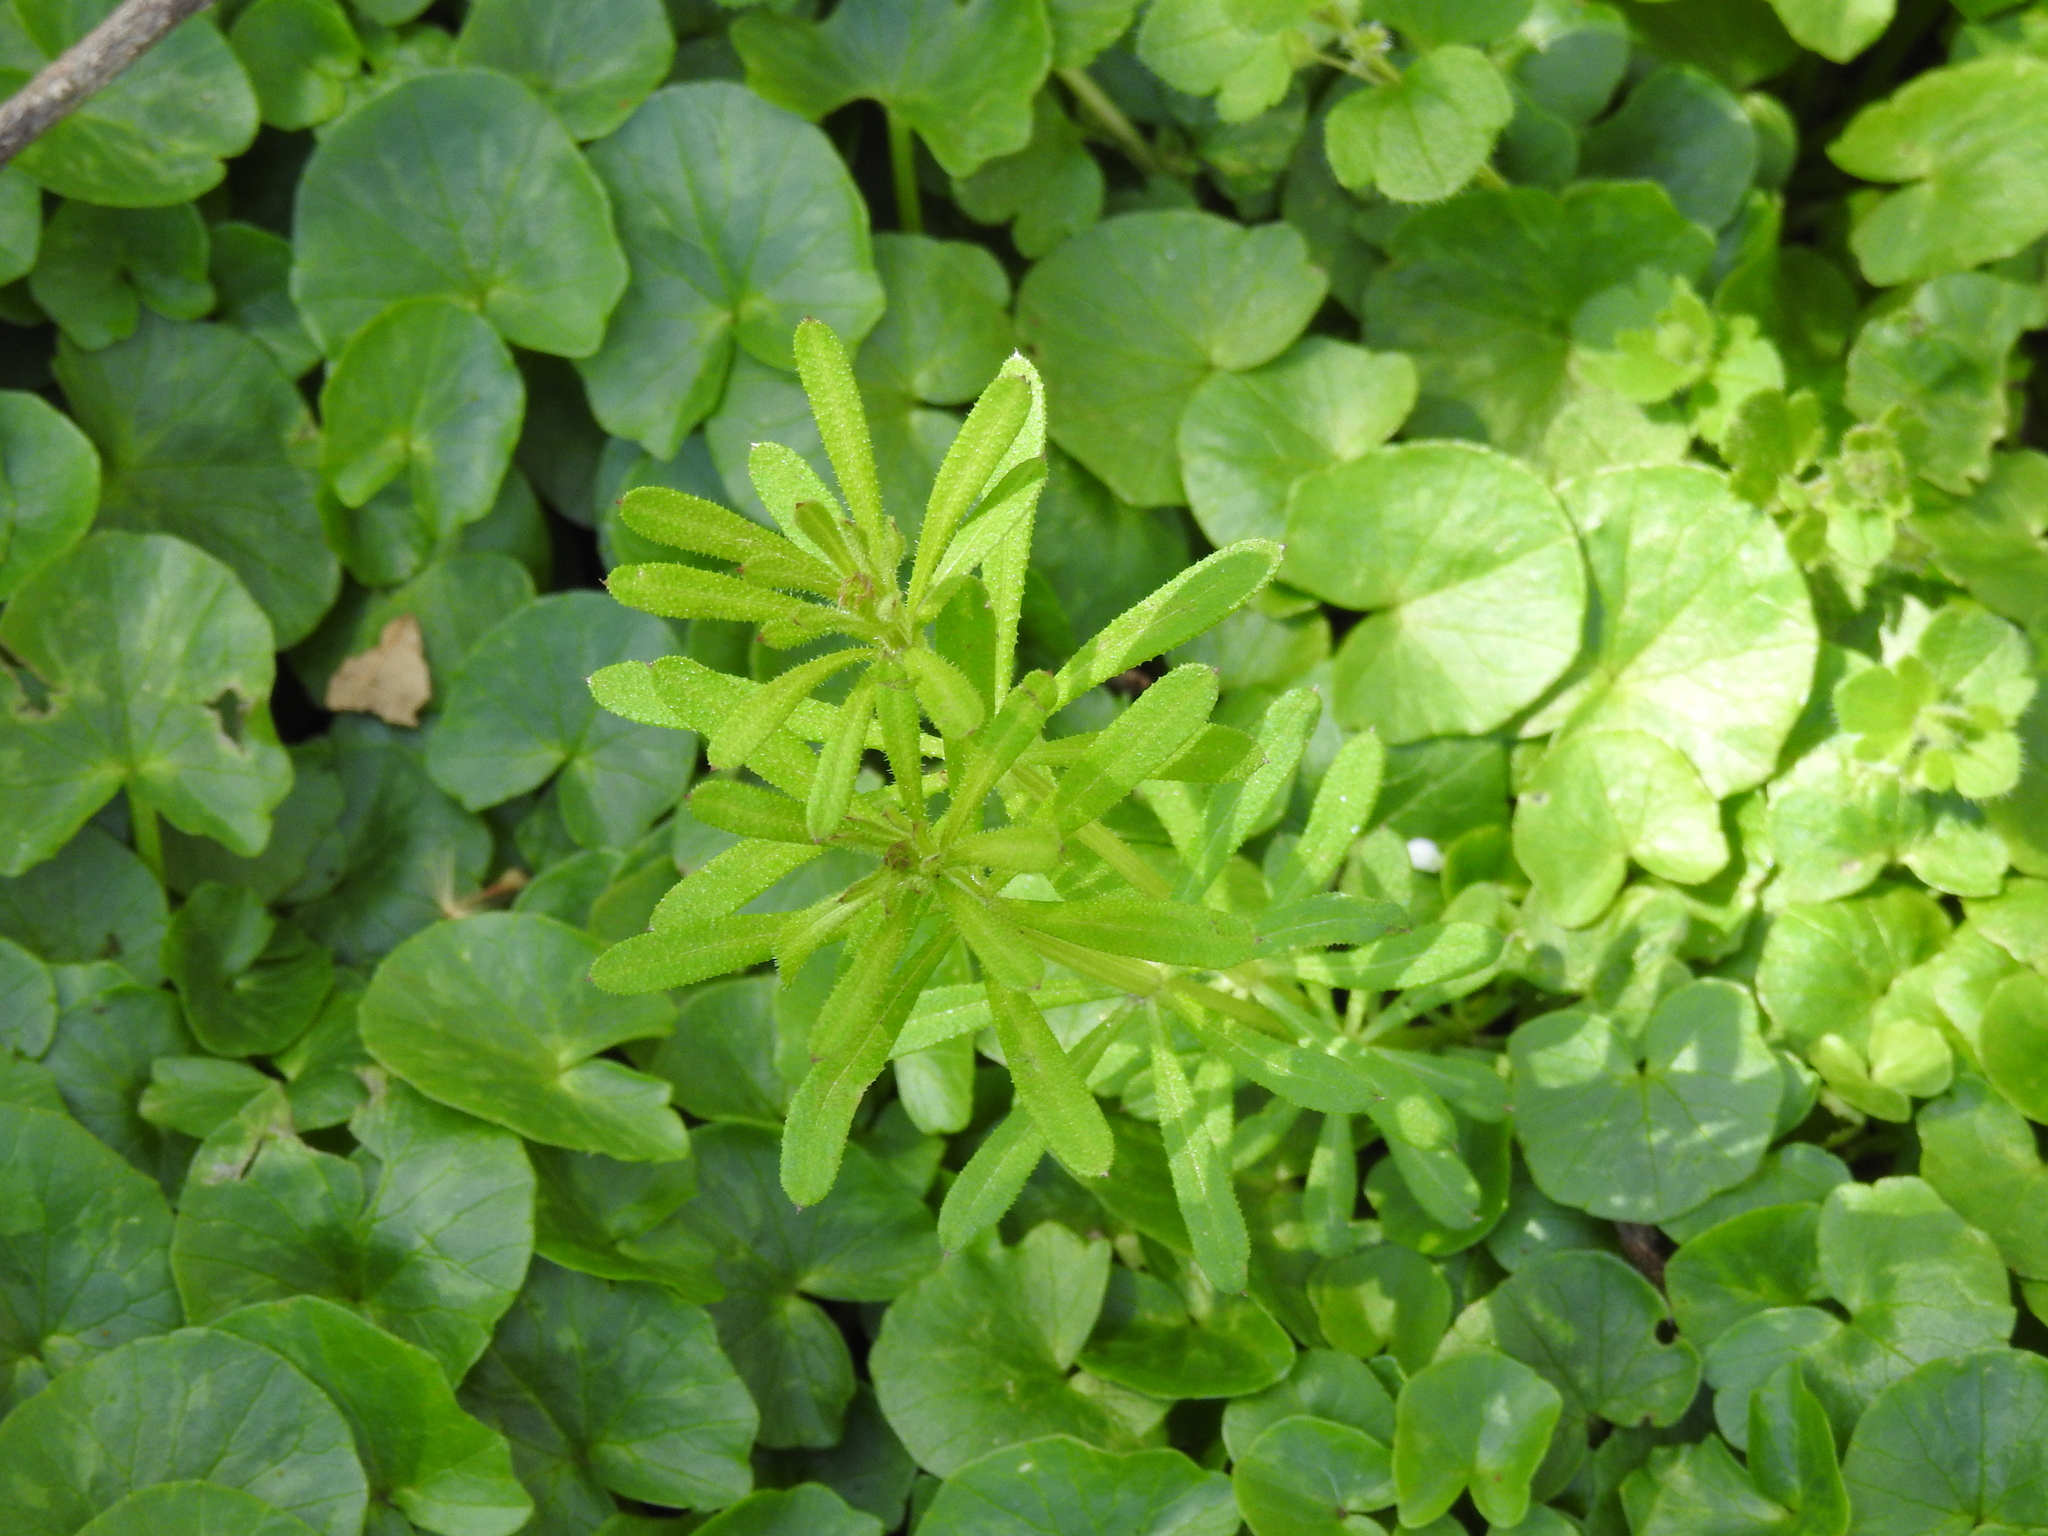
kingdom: Plantae
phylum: Tracheophyta
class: Magnoliopsida
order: Gentianales
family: Rubiaceae
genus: Galium
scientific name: Galium aparine
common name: Cleavers
